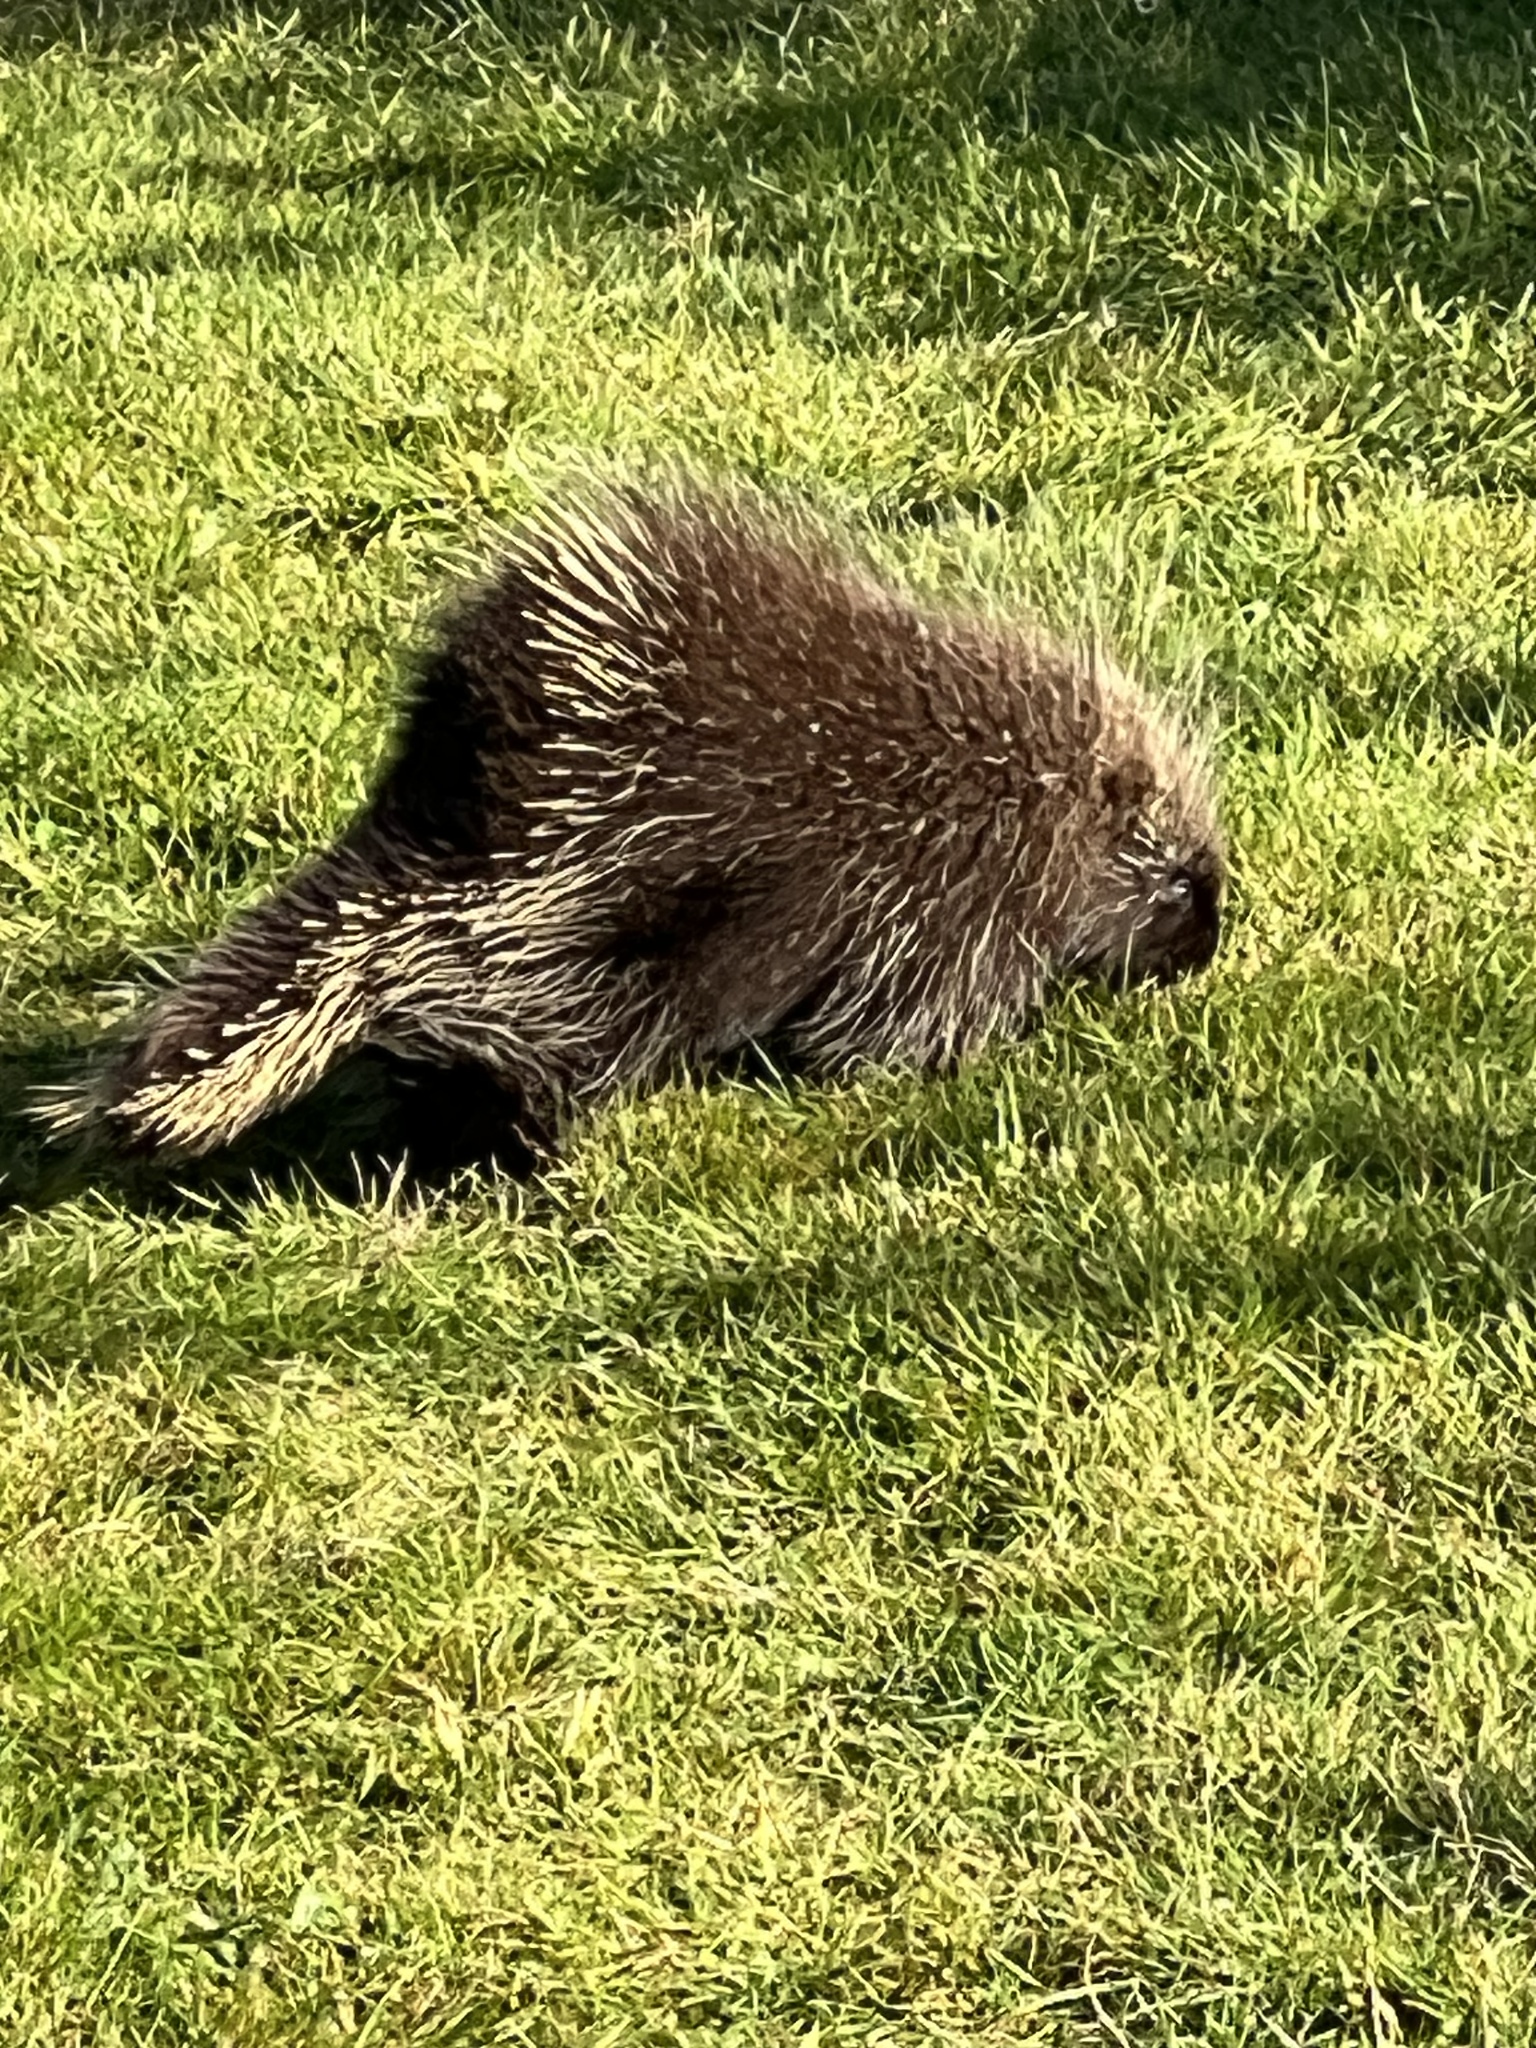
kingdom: Animalia
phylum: Chordata
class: Mammalia
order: Rodentia
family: Erethizontidae
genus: Erethizon
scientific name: Erethizon dorsatus
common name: North american porcupine
